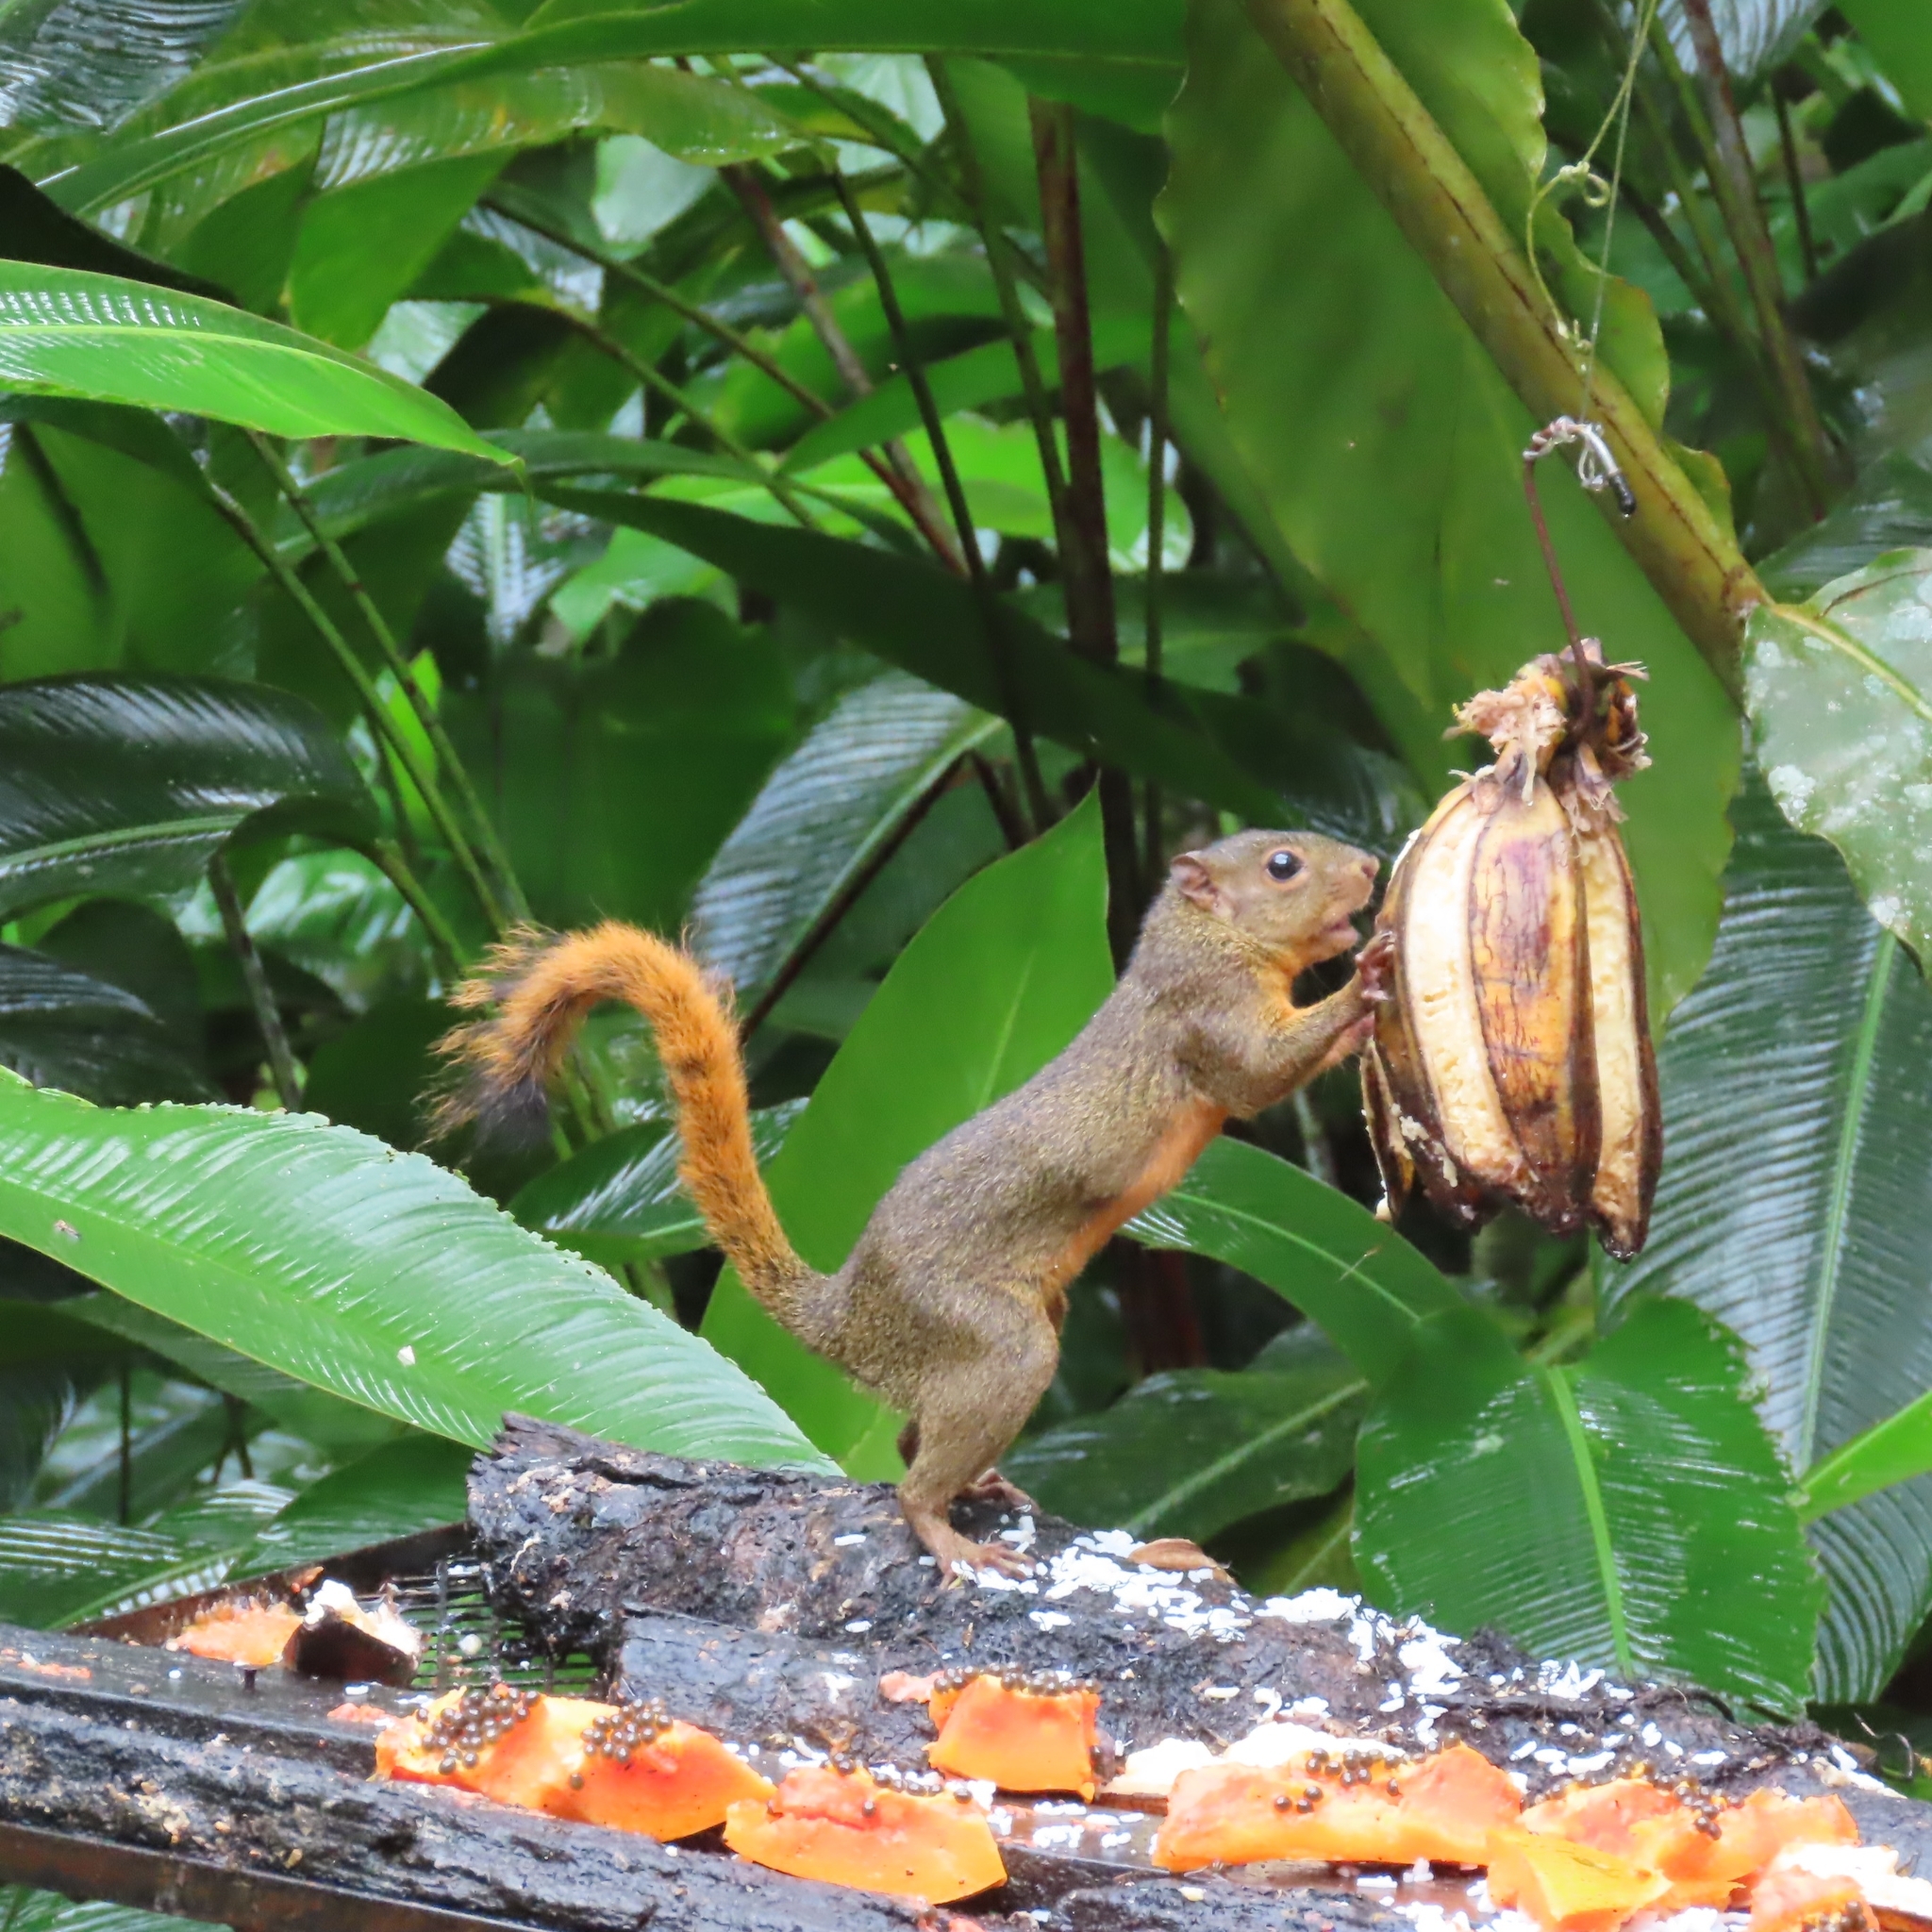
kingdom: Animalia
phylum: Chordata
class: Mammalia
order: Rodentia
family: Sciuridae
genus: Sciurus
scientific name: Sciurus granatensis
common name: Red-tailed squirrel
